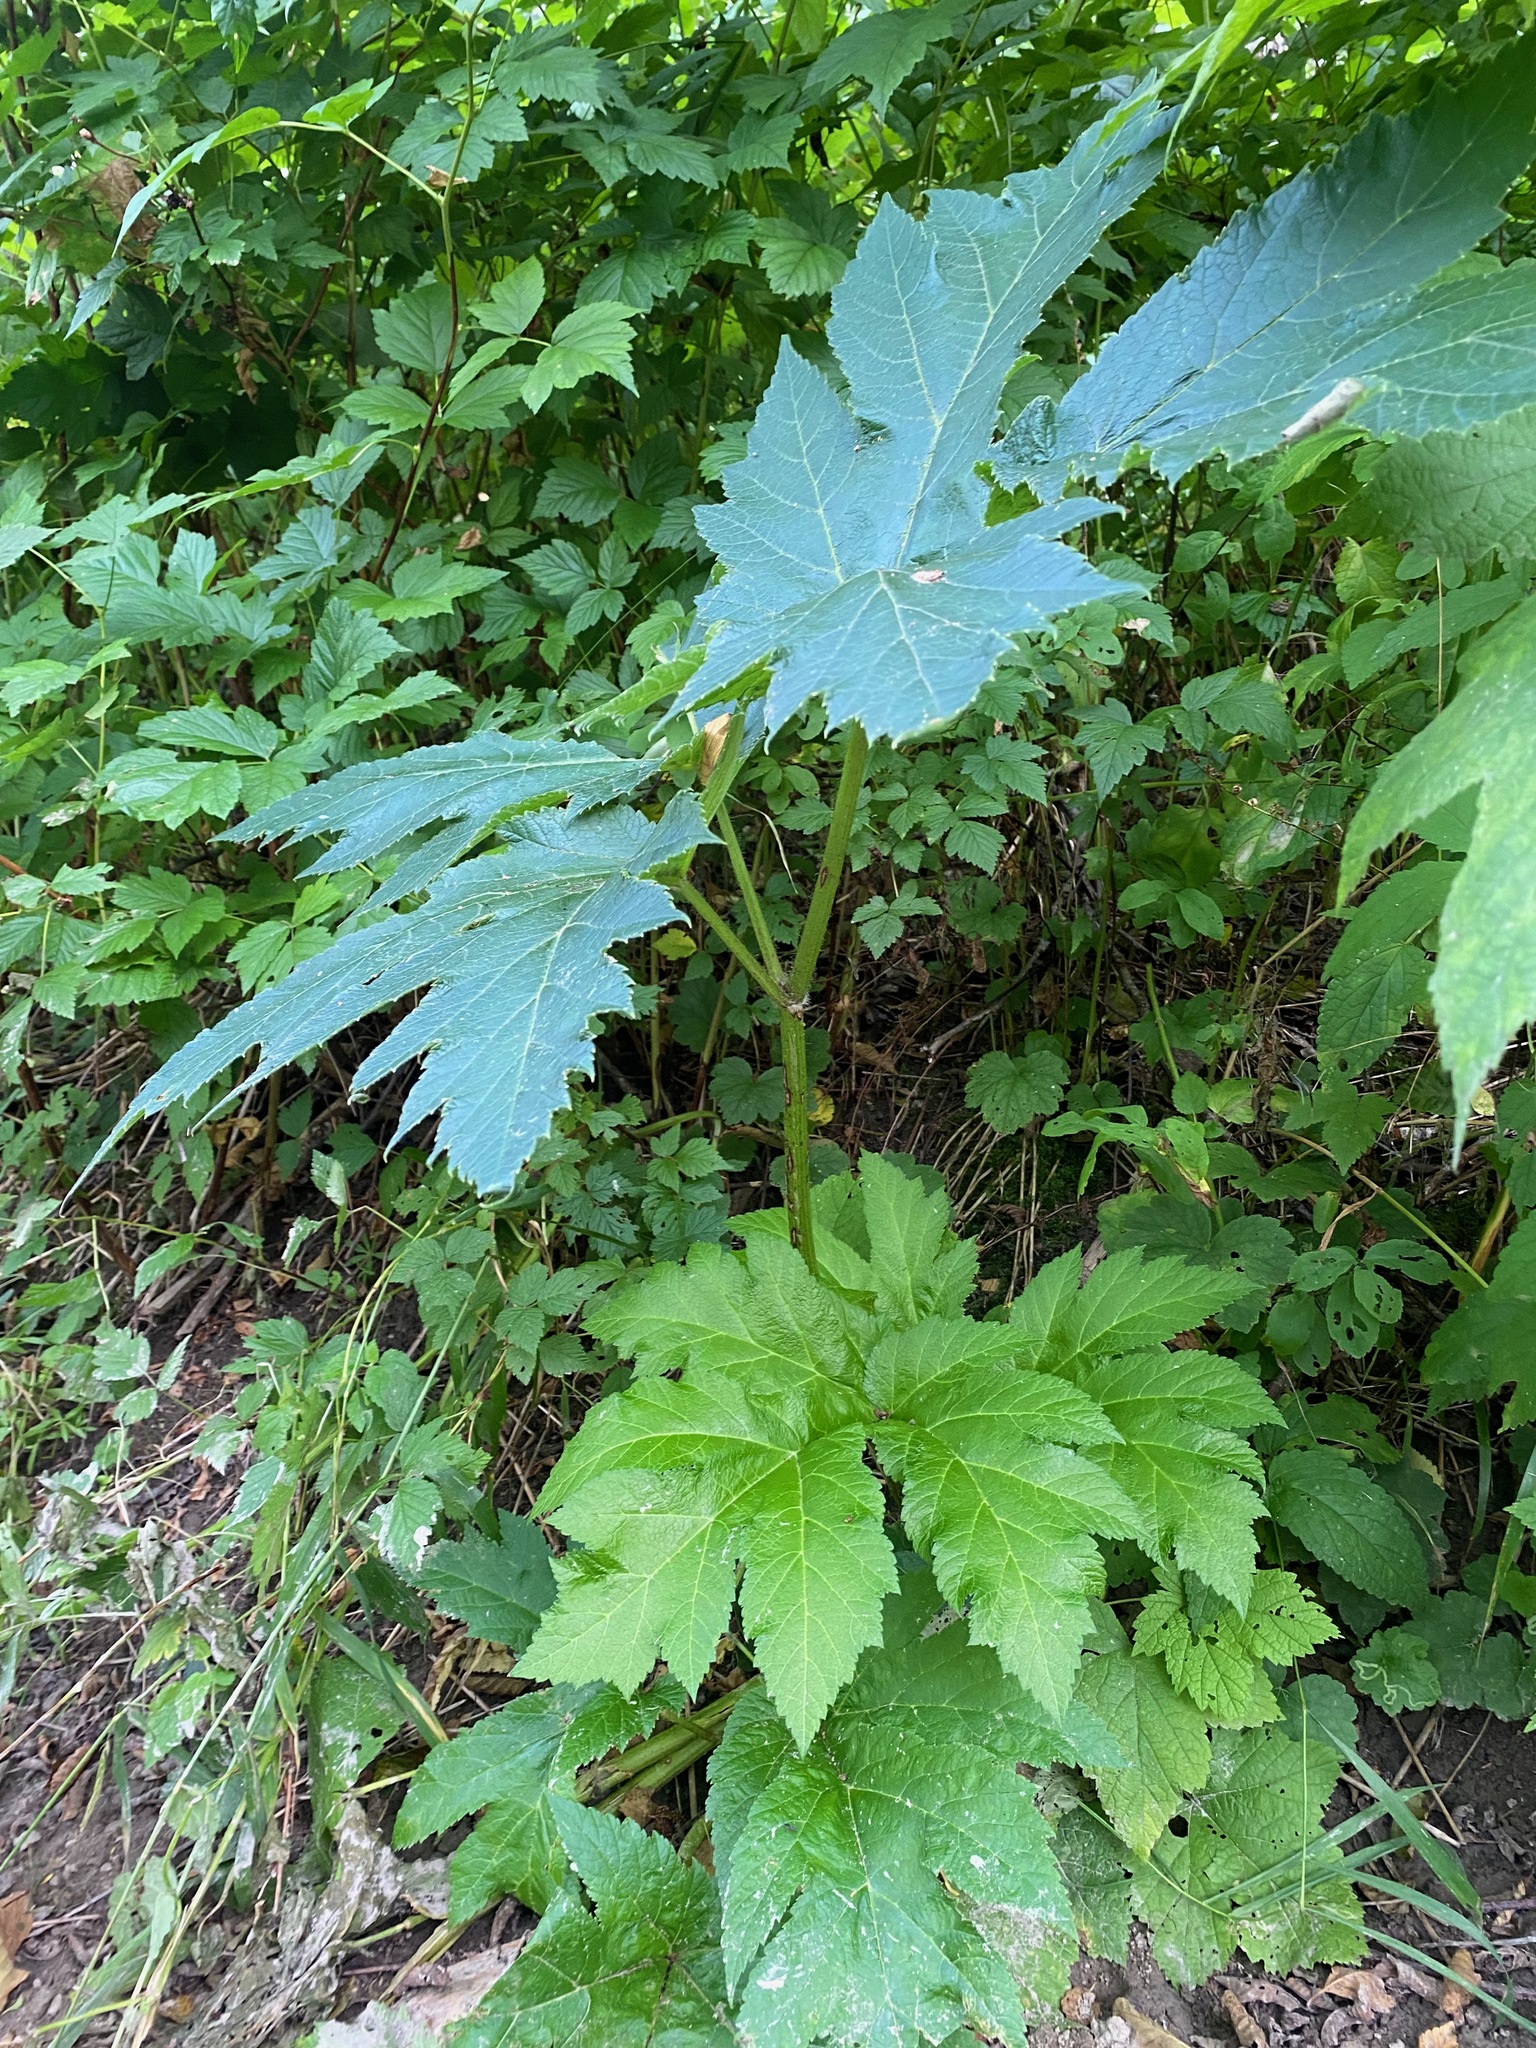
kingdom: Plantae
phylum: Tracheophyta
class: Magnoliopsida
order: Apiales
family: Apiaceae
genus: Heracleum
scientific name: Heracleum maximum
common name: American cow parsnip
